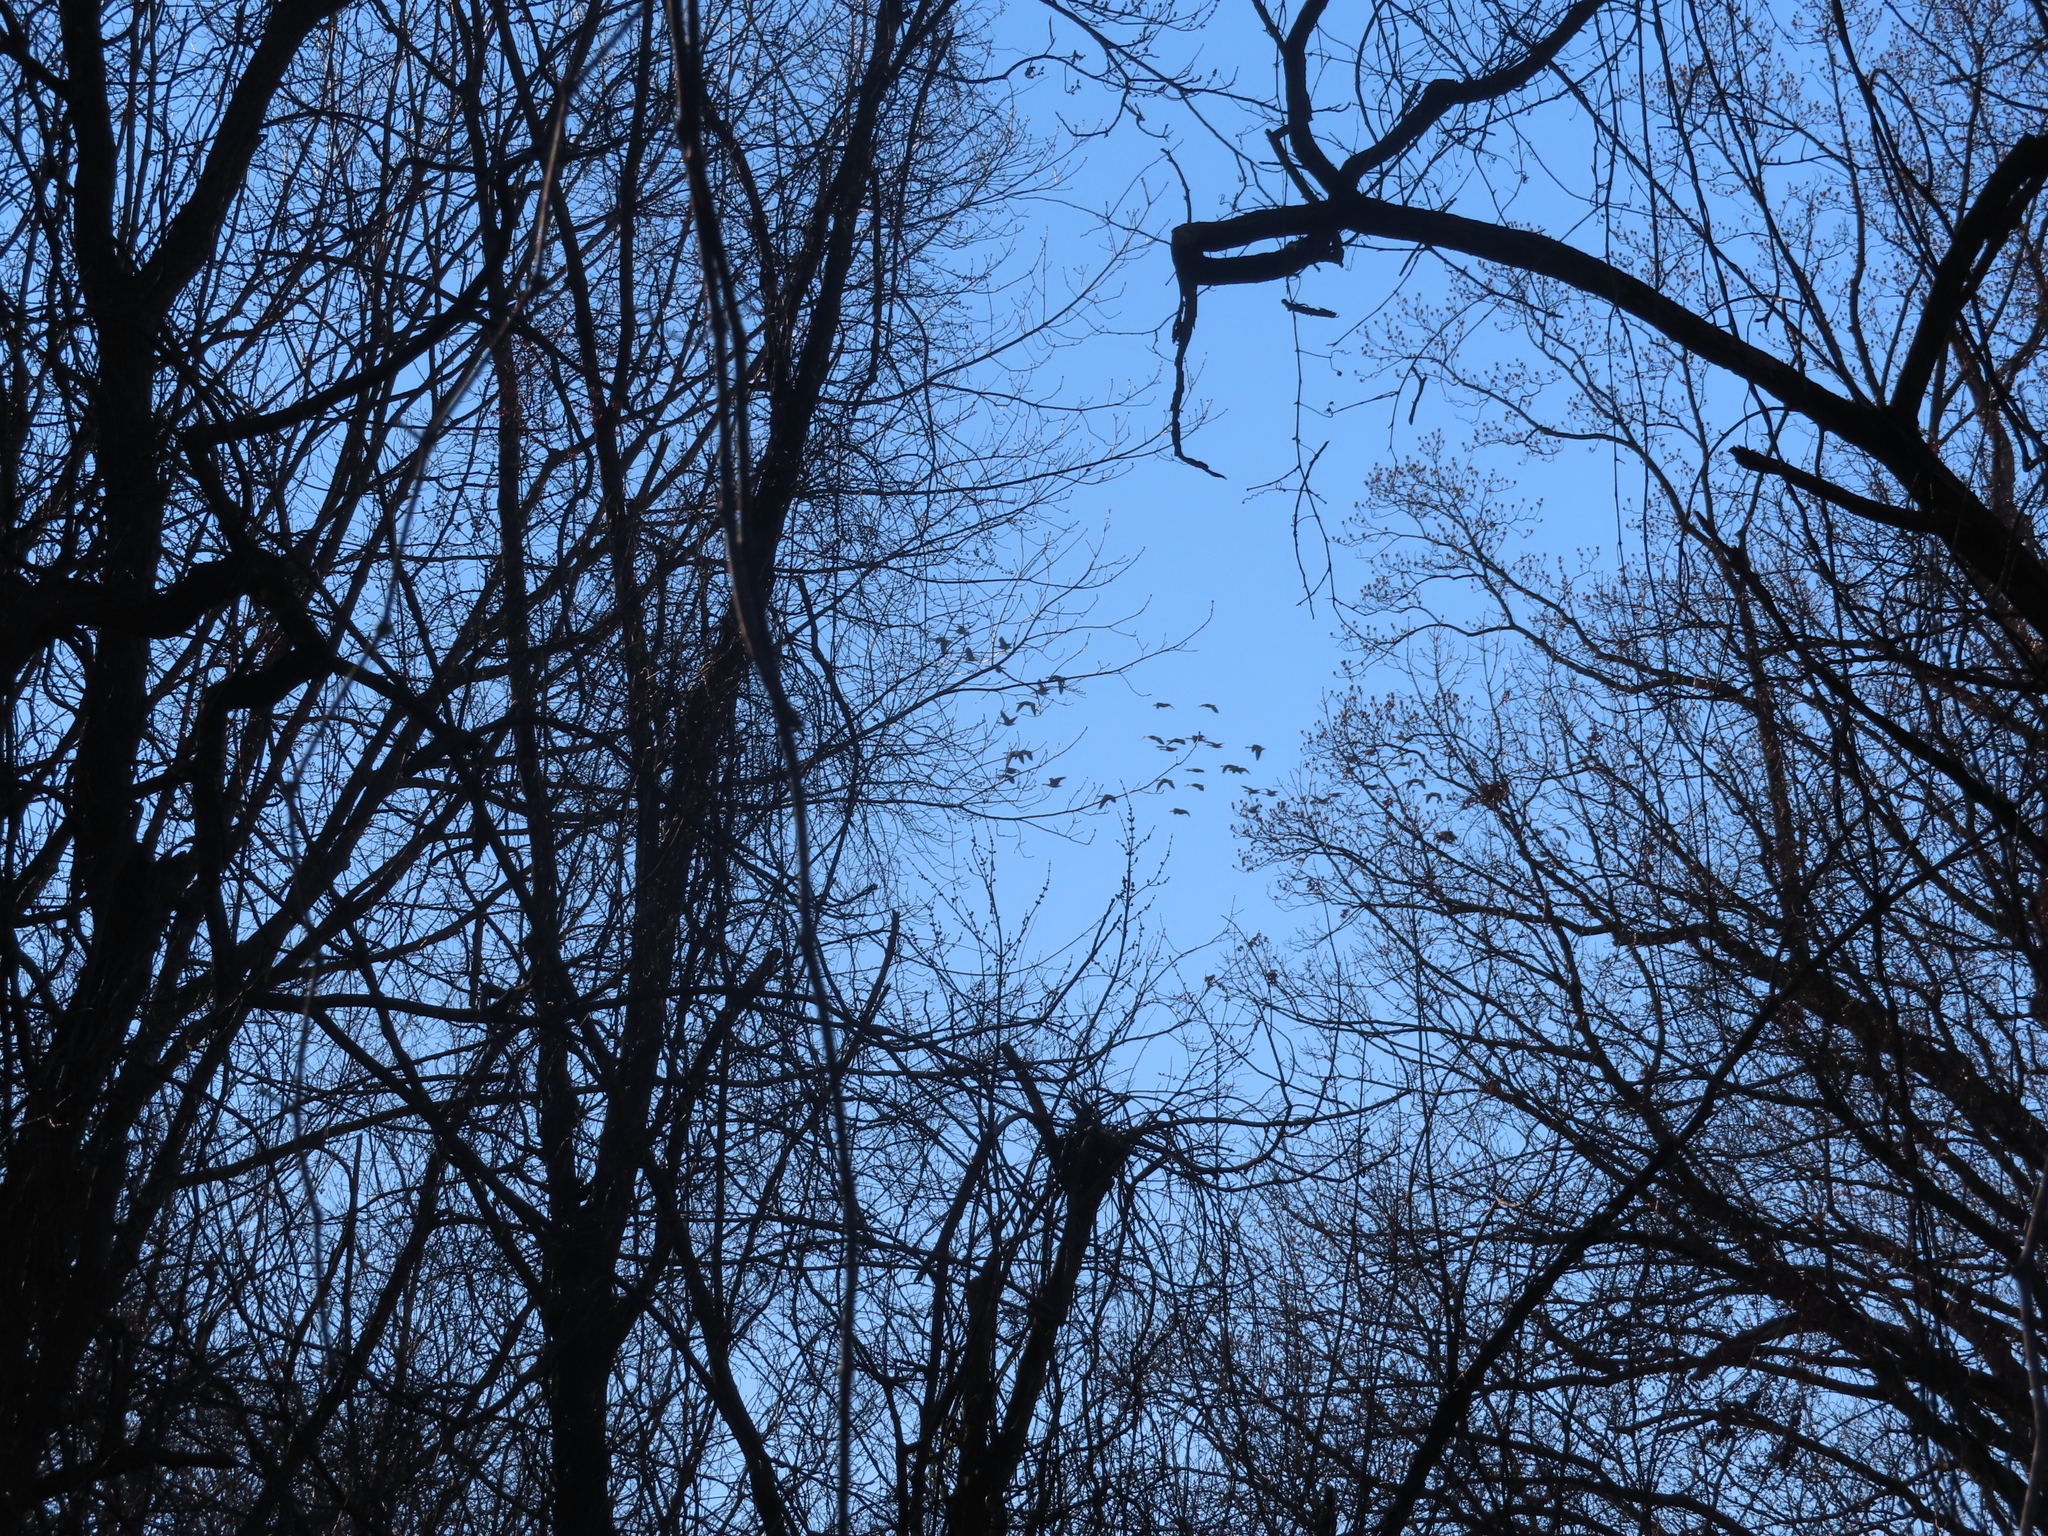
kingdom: Animalia
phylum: Chordata
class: Aves
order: Anseriformes
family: Anatidae
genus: Branta
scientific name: Branta canadensis
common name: Canada goose
